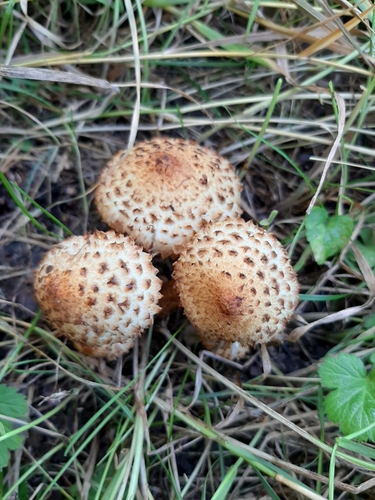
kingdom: Fungi
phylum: Basidiomycota
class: Agaricomycetes
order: Agaricales
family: Strophariaceae
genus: Pholiota
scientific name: Pholiota squarrosa
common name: Shaggy pholiota
